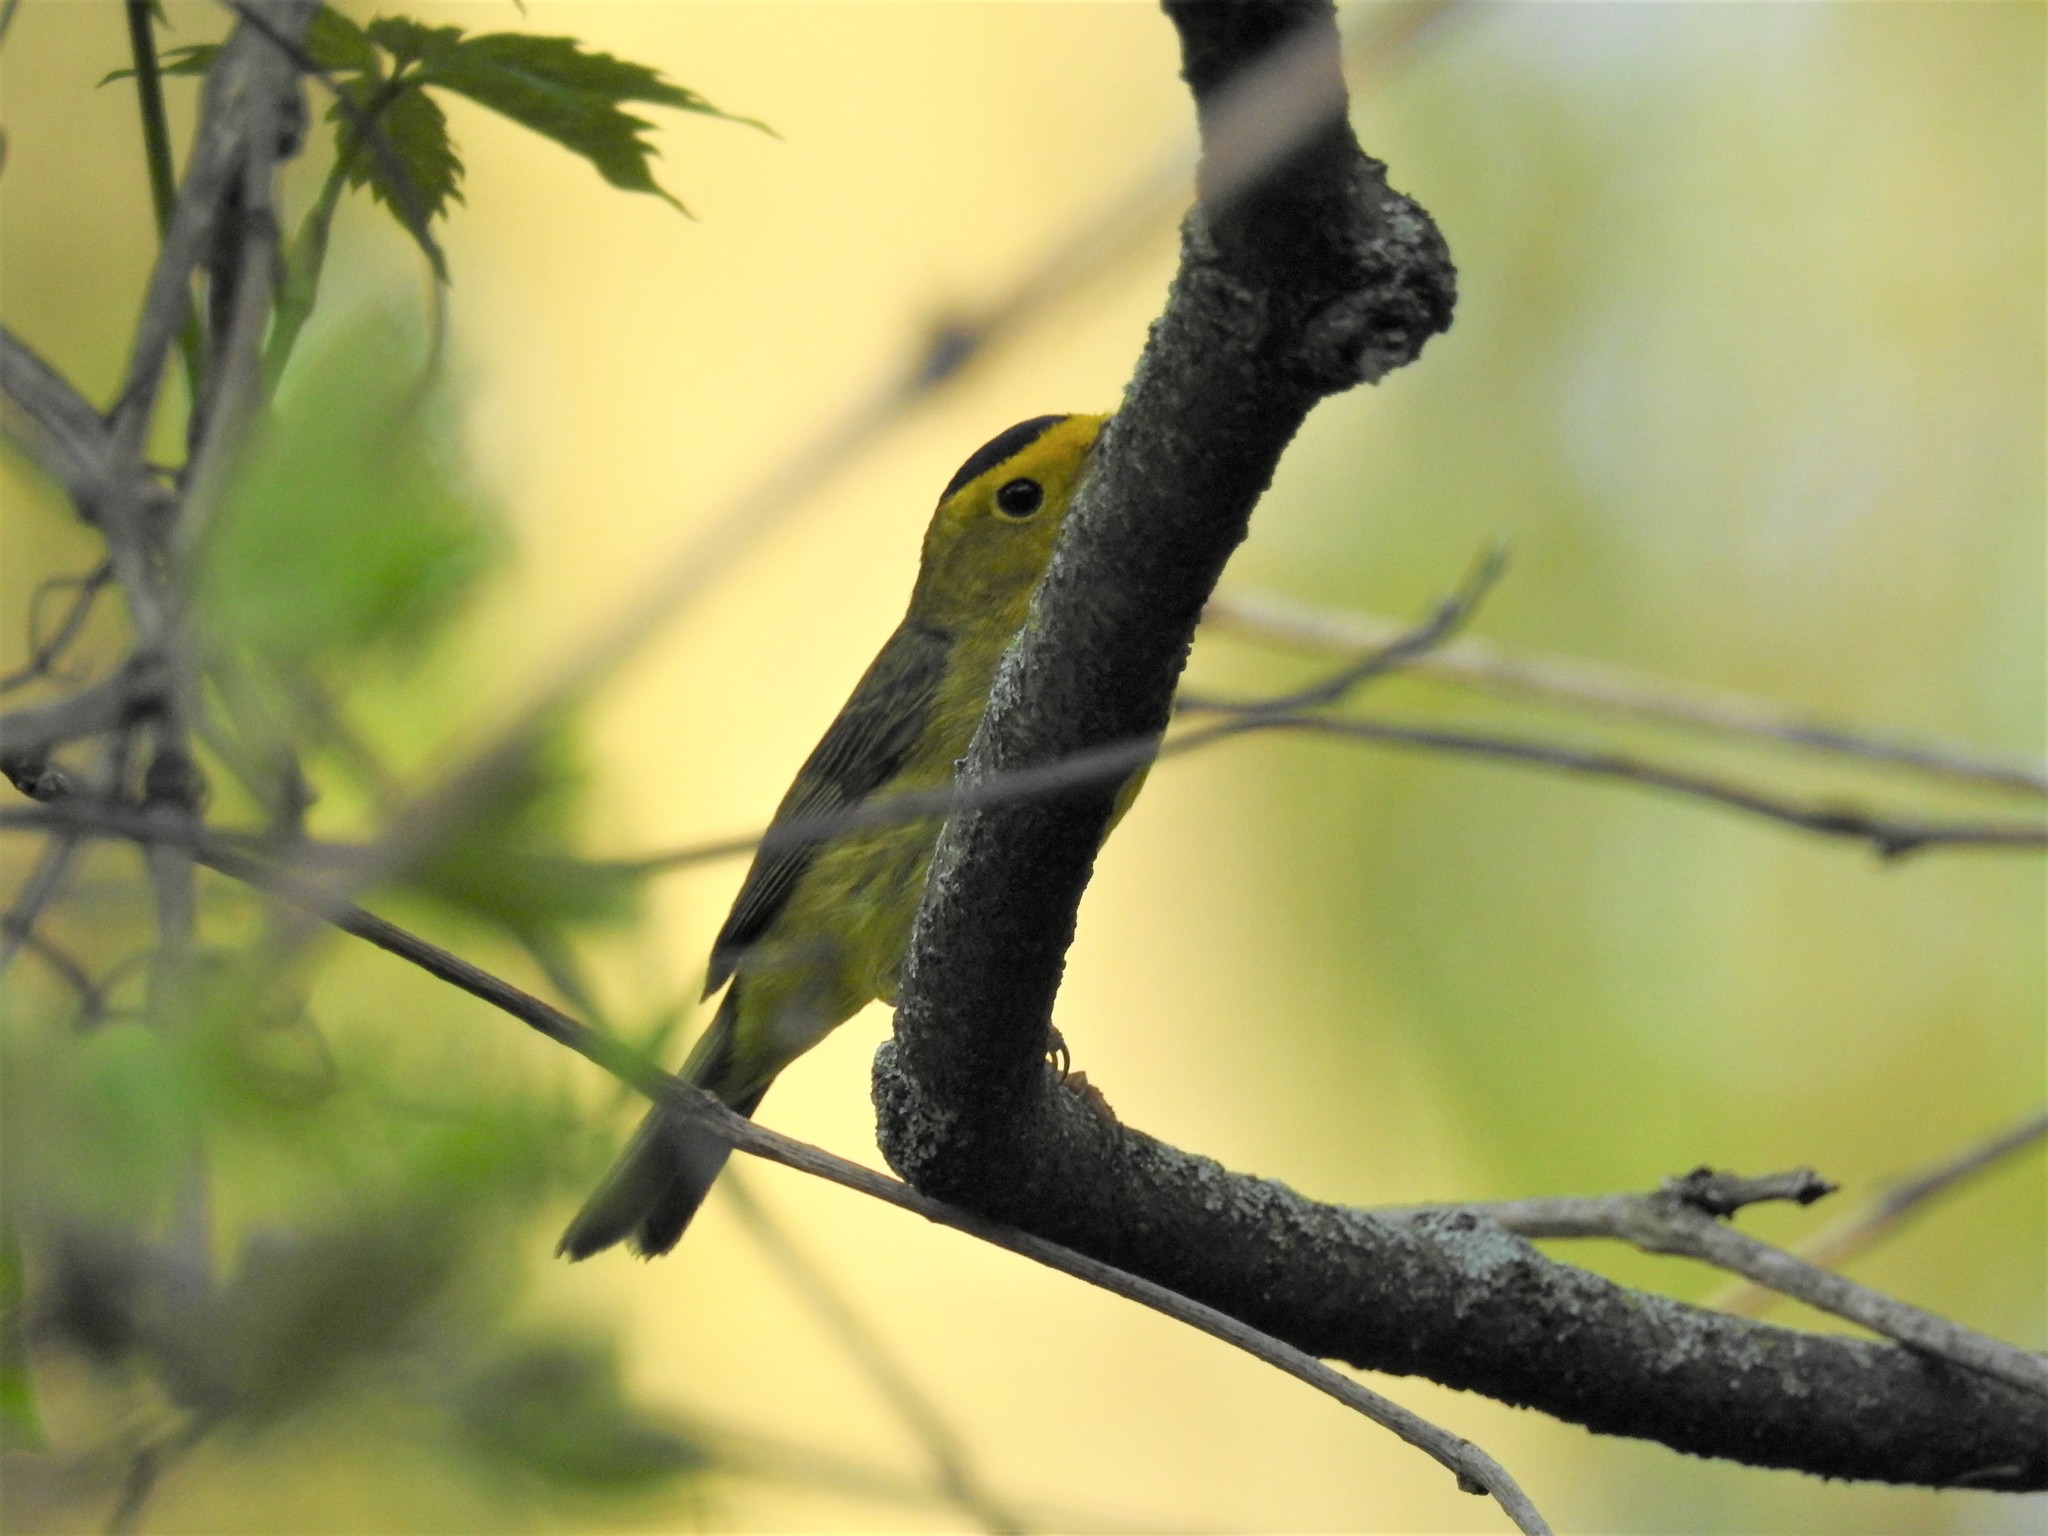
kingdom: Animalia
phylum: Chordata
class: Aves
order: Passeriformes
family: Parulidae
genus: Cardellina
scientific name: Cardellina pusilla
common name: Wilson's warbler
